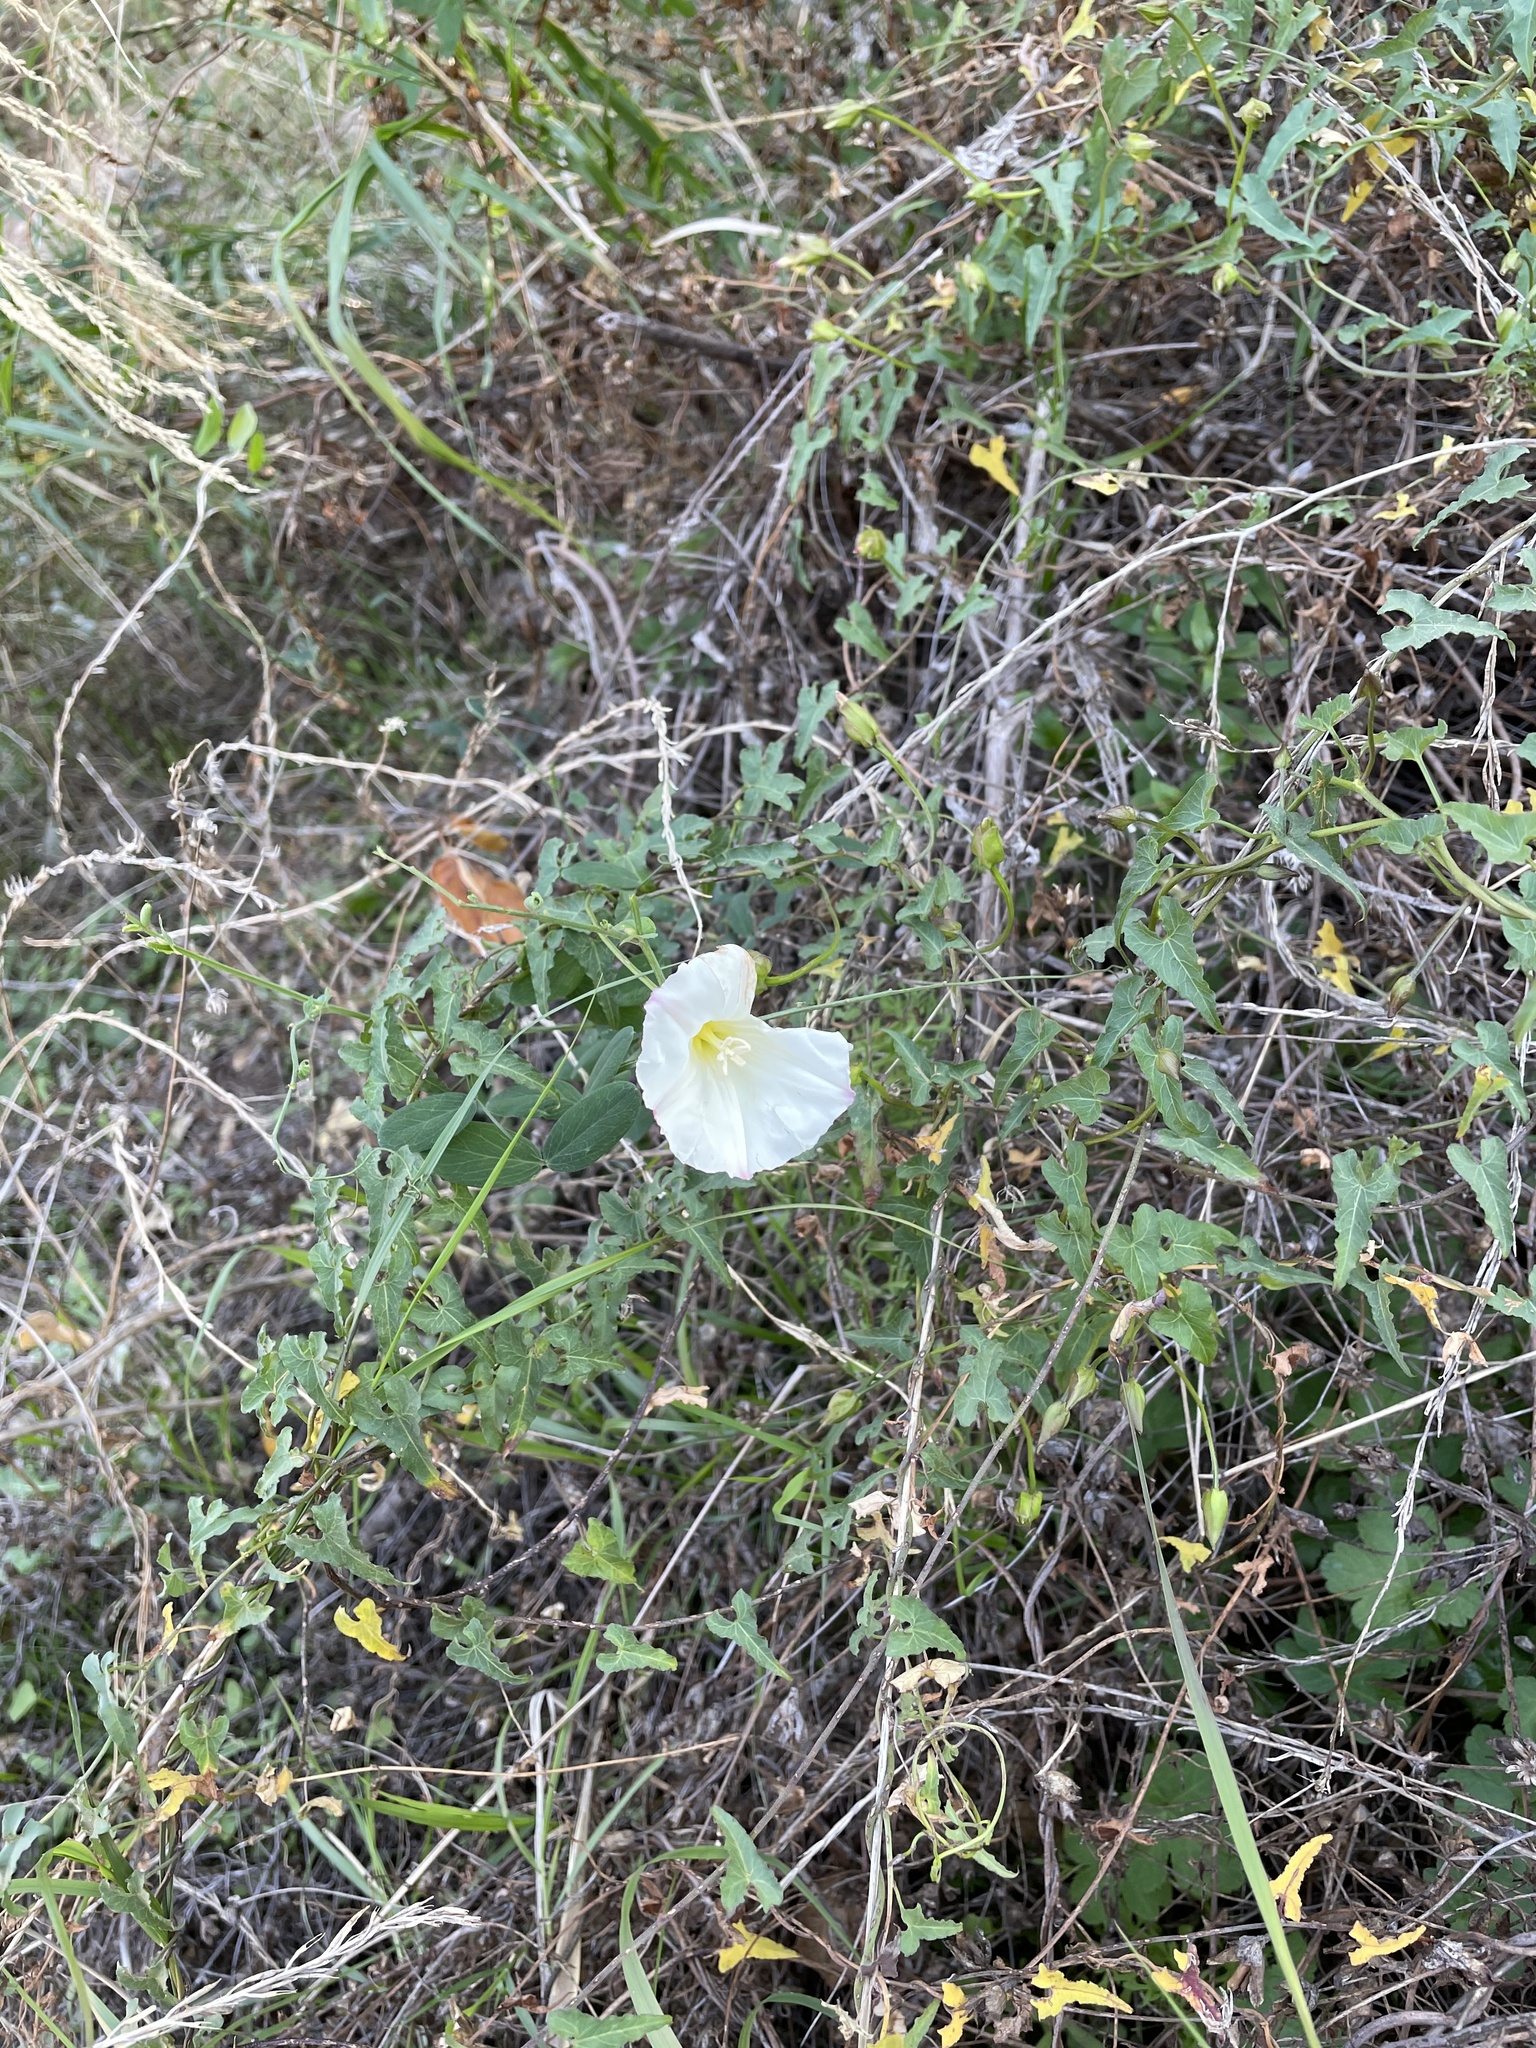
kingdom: Plantae
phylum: Tracheophyta
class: Magnoliopsida
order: Solanales
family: Convolvulaceae
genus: Calystegia
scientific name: Calystegia macrostegia
